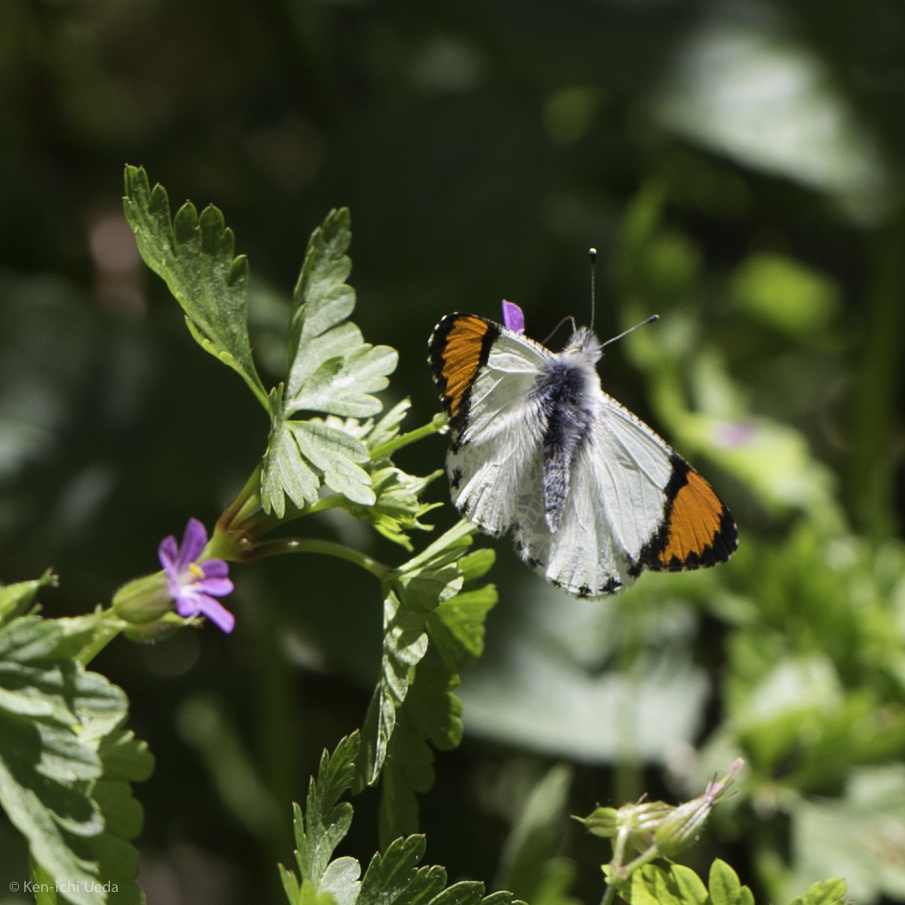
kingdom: Animalia
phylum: Arthropoda
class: Insecta
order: Lepidoptera
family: Pieridae
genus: Anthocharis
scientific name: Anthocharis sara
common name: Sara's orangetip
